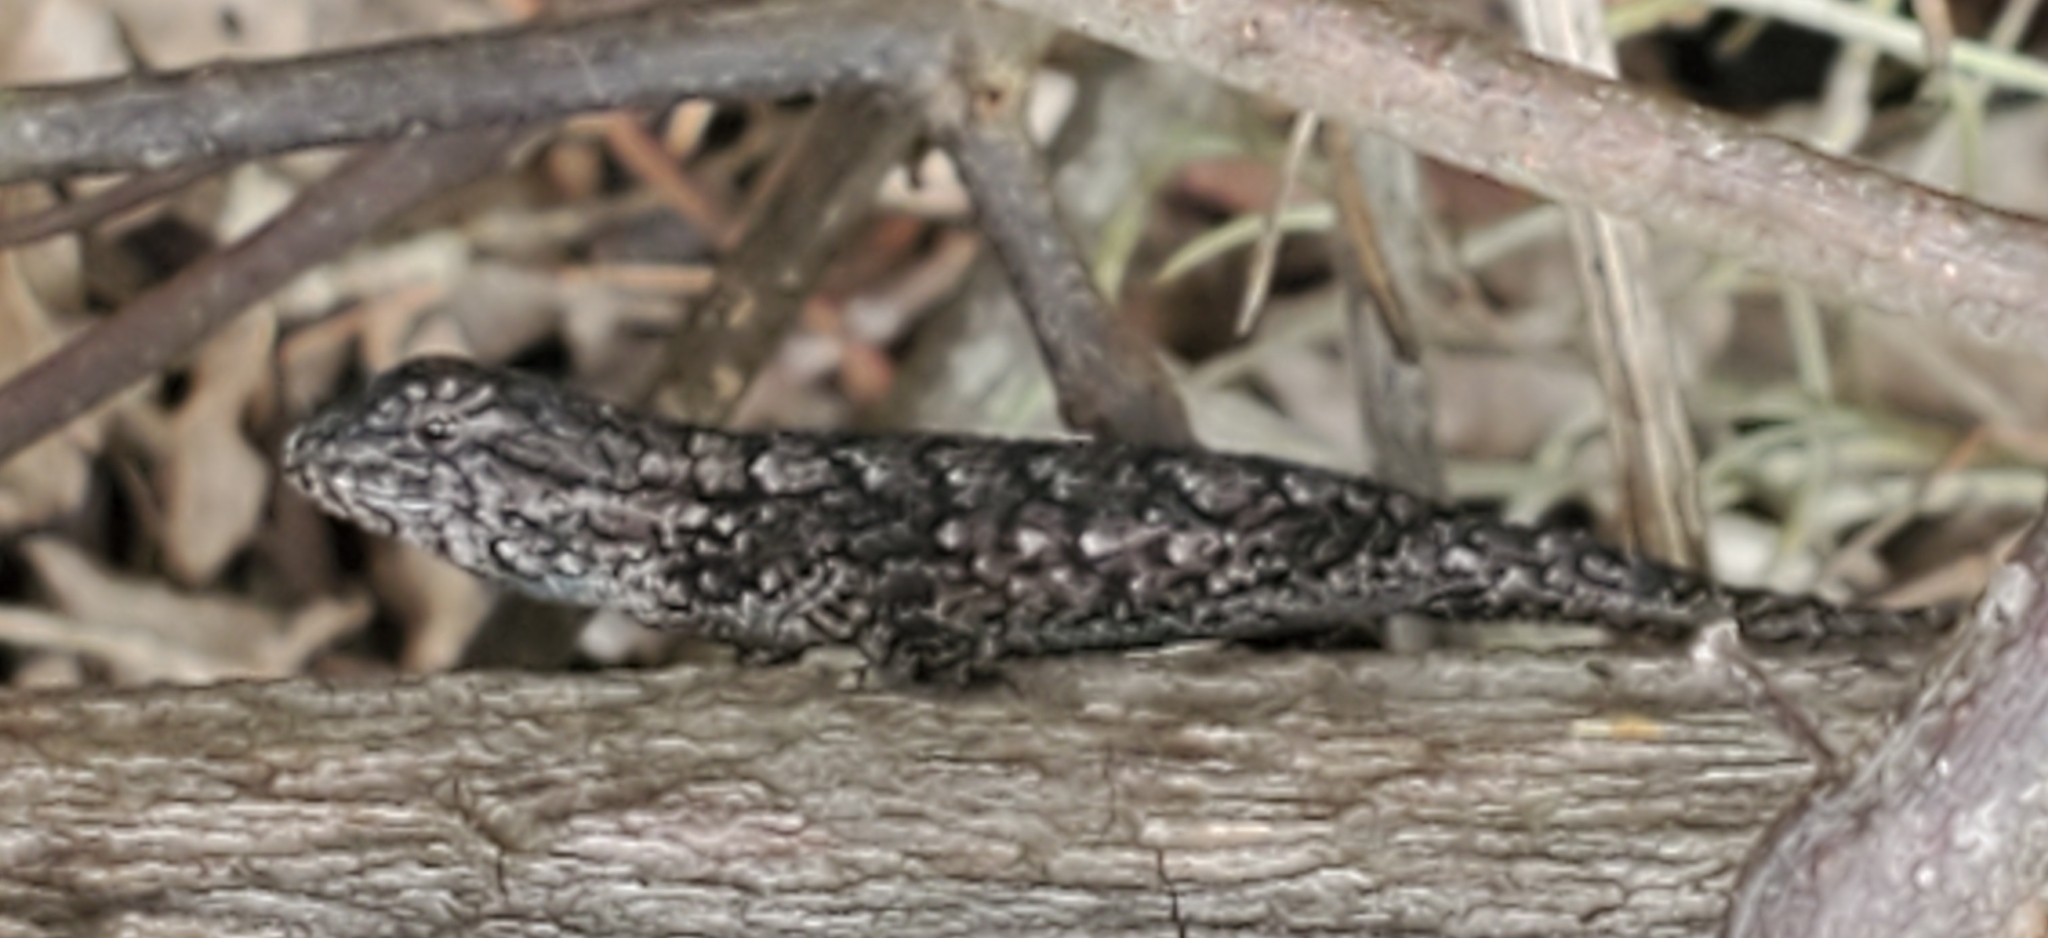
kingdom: Animalia
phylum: Chordata
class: Squamata
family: Phrynosomatidae
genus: Sceloporus
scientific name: Sceloporus undulatus
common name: Eastern fence lizard
